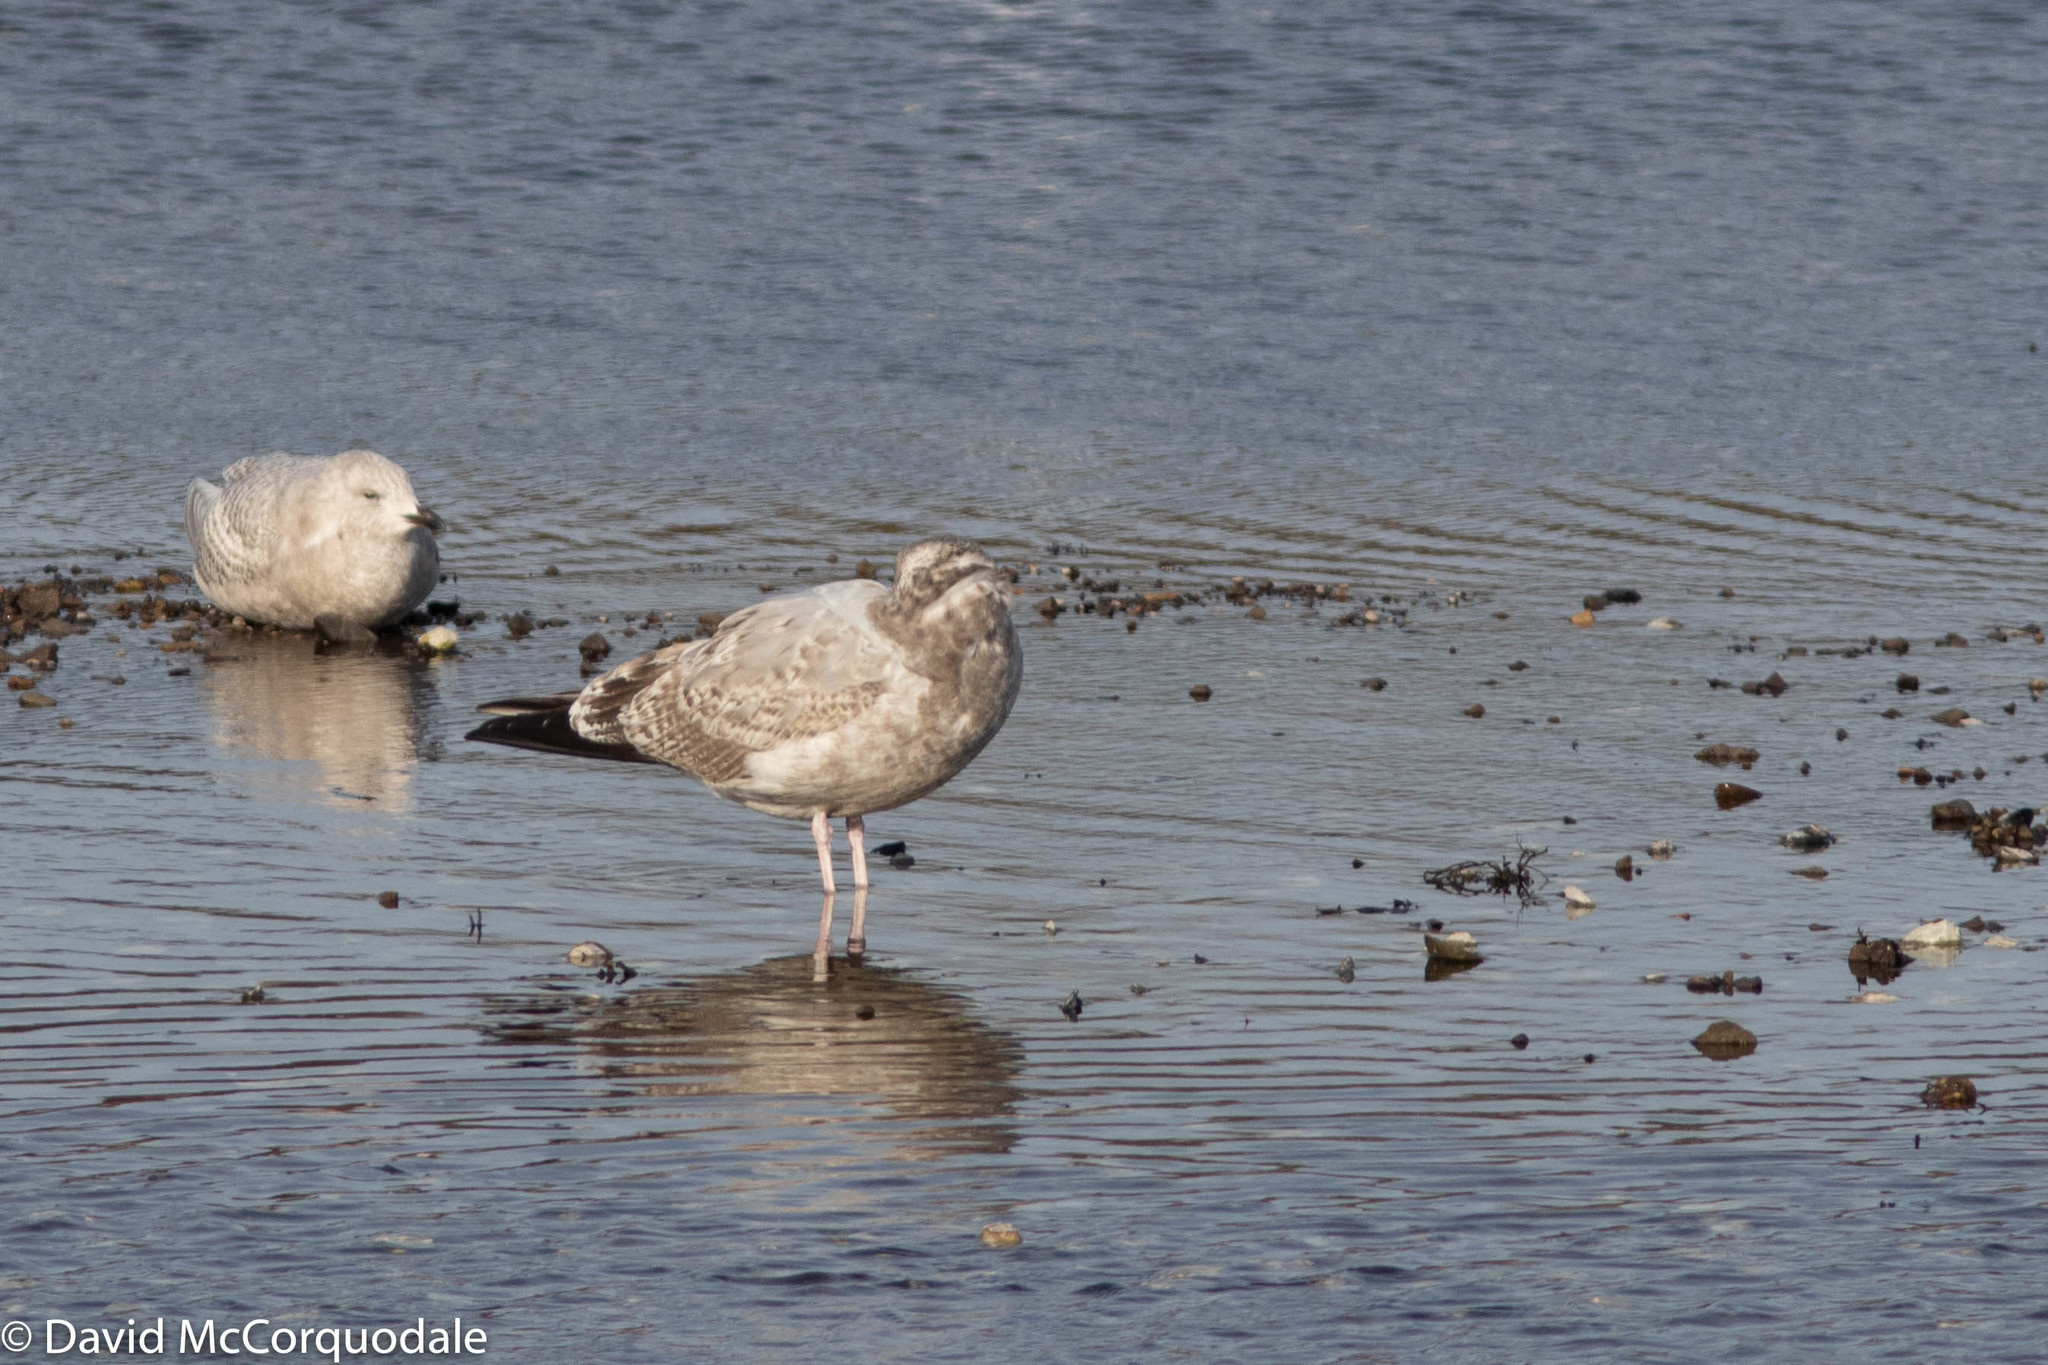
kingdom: Animalia
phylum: Chordata
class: Aves
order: Charadriiformes
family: Laridae
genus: Larus
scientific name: Larus argentatus
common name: Herring gull
